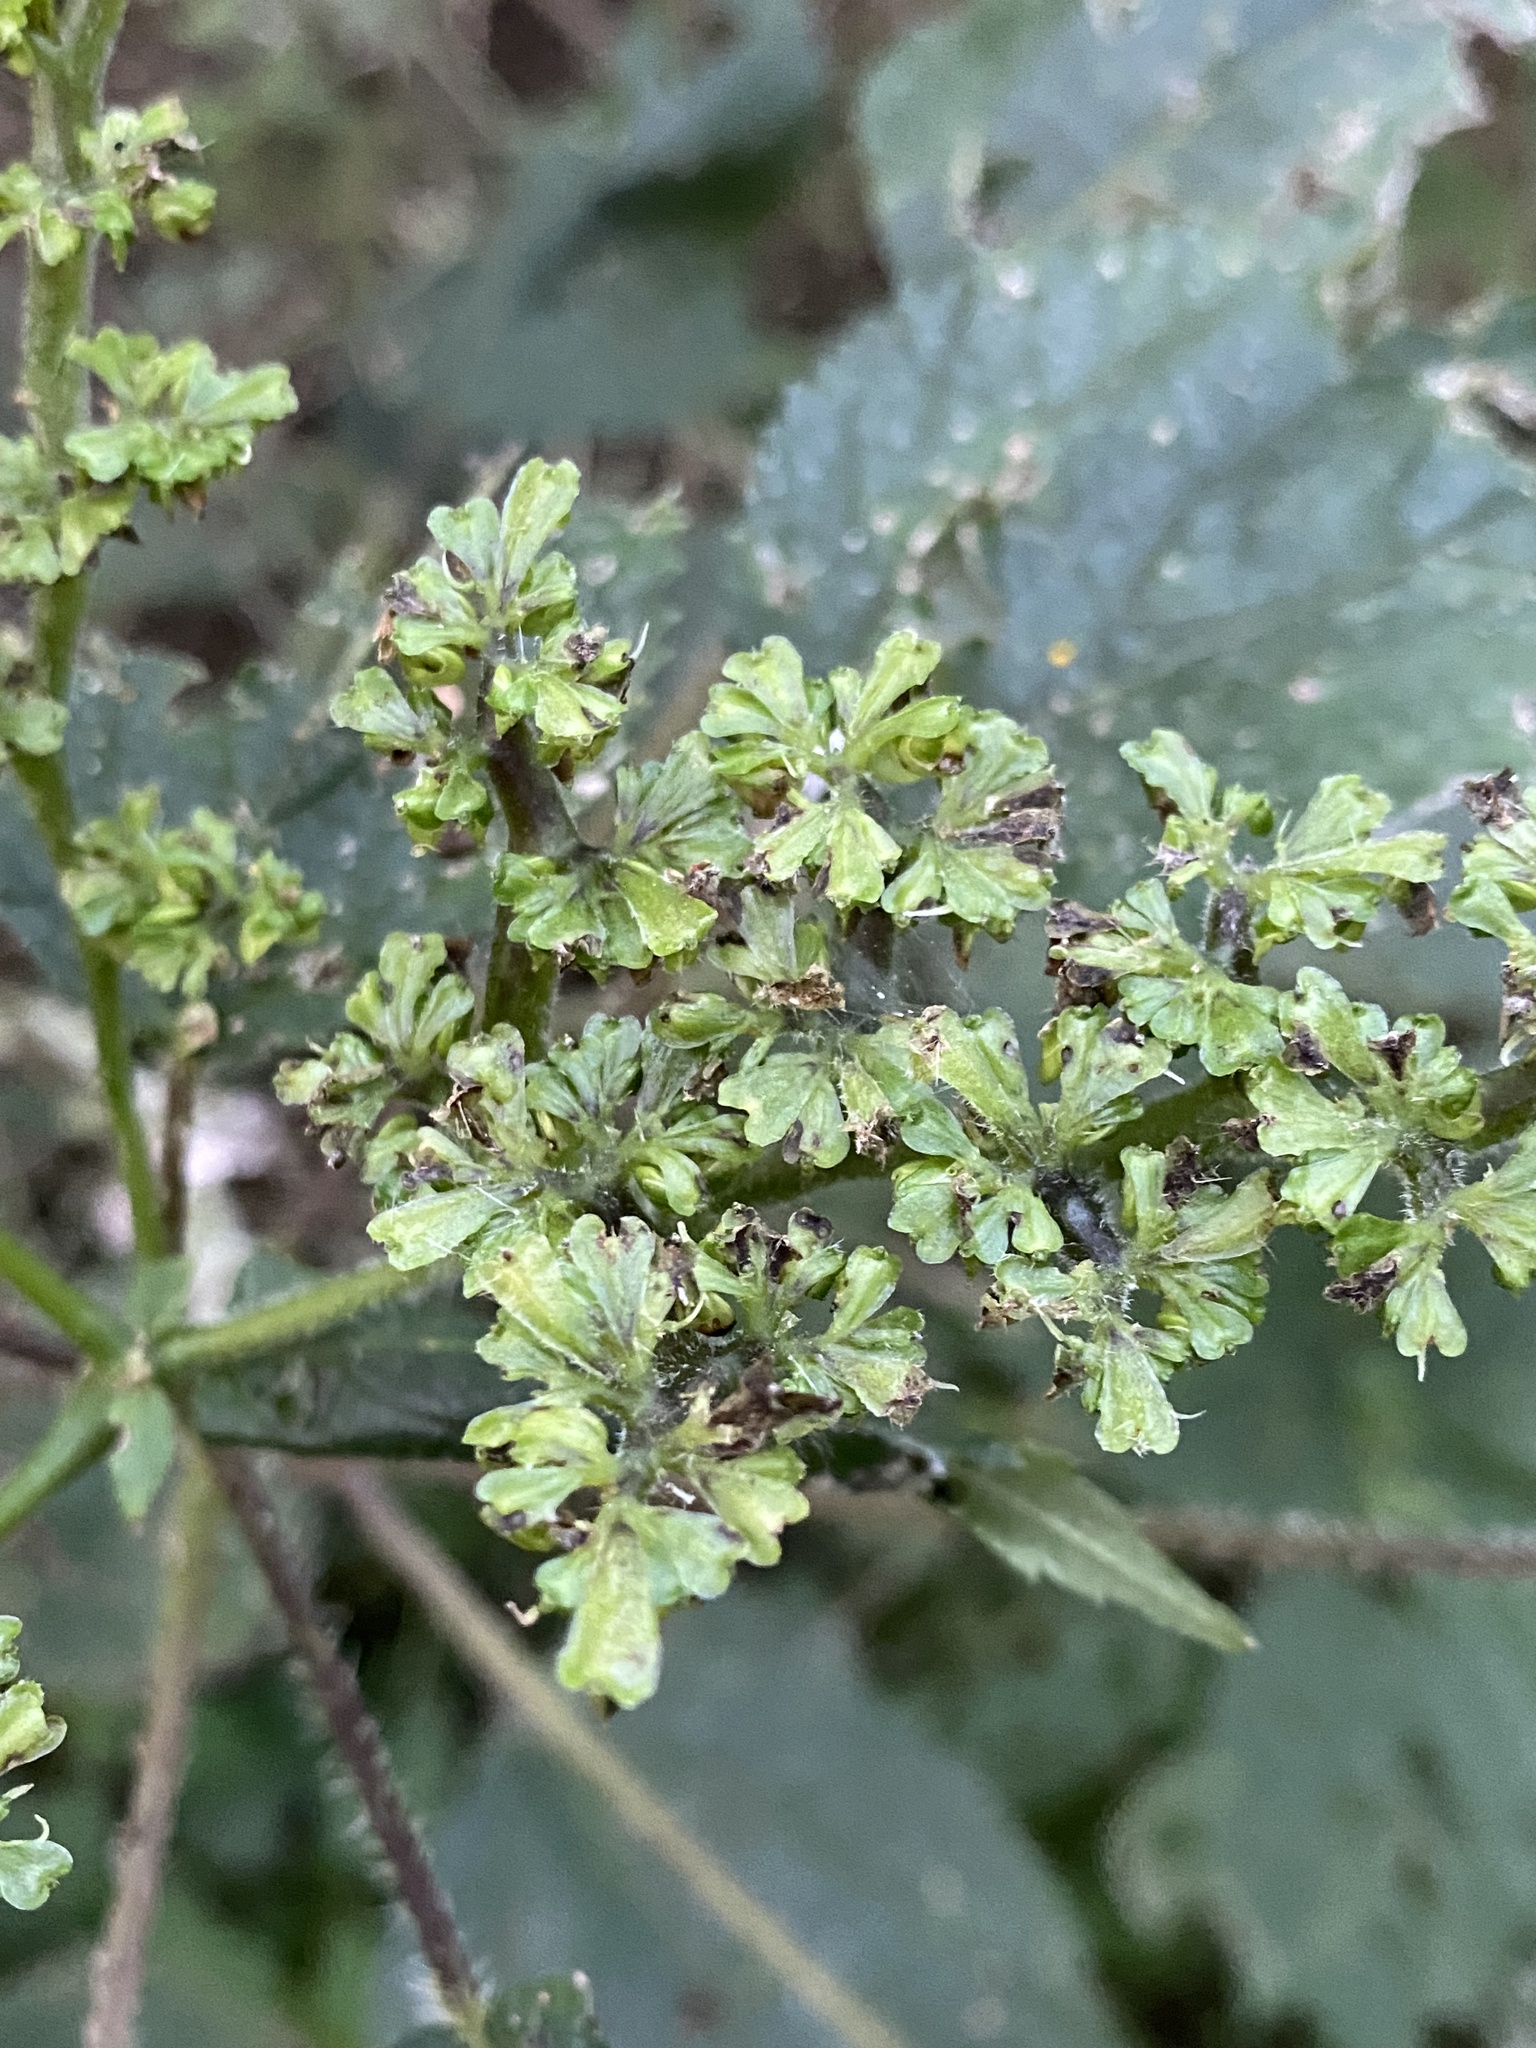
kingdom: Plantae
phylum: Tracheophyta
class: Magnoliopsida
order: Rosales
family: Urticaceae
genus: Laportea
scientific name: Laportea canadensis
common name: Canada nettle
